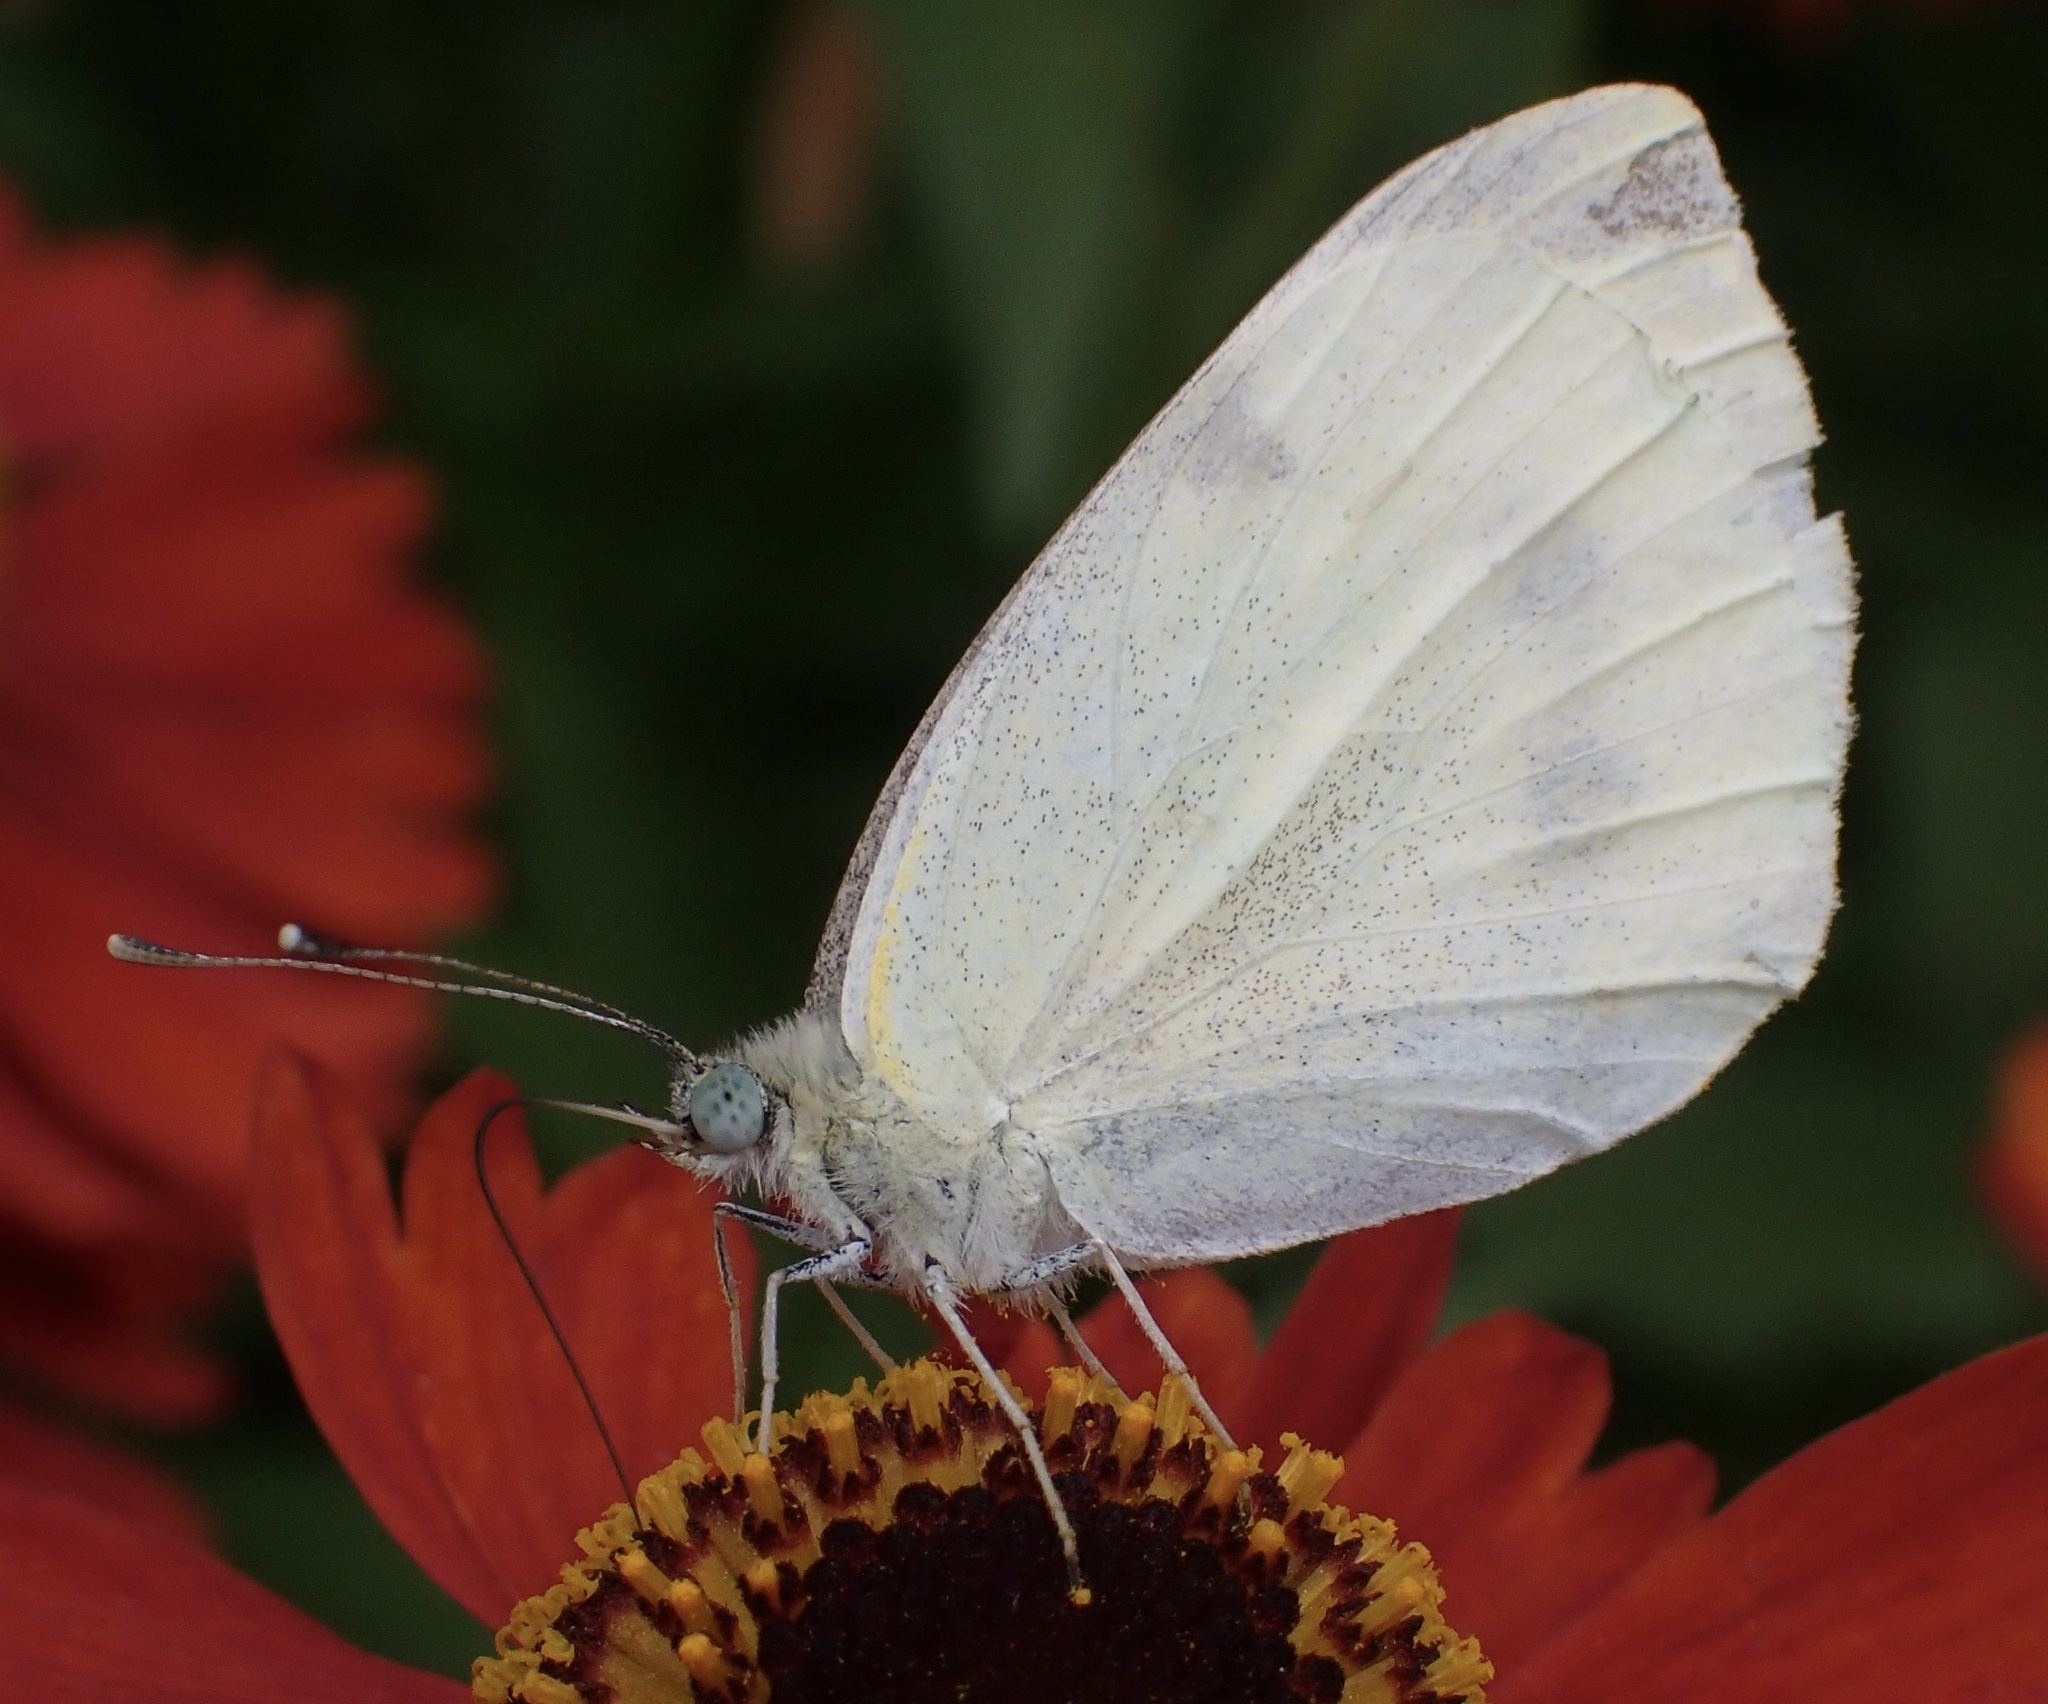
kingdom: Animalia
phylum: Arthropoda
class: Insecta
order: Lepidoptera
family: Pieridae
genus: Pieris
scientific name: Pieris rapae
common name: Small white
